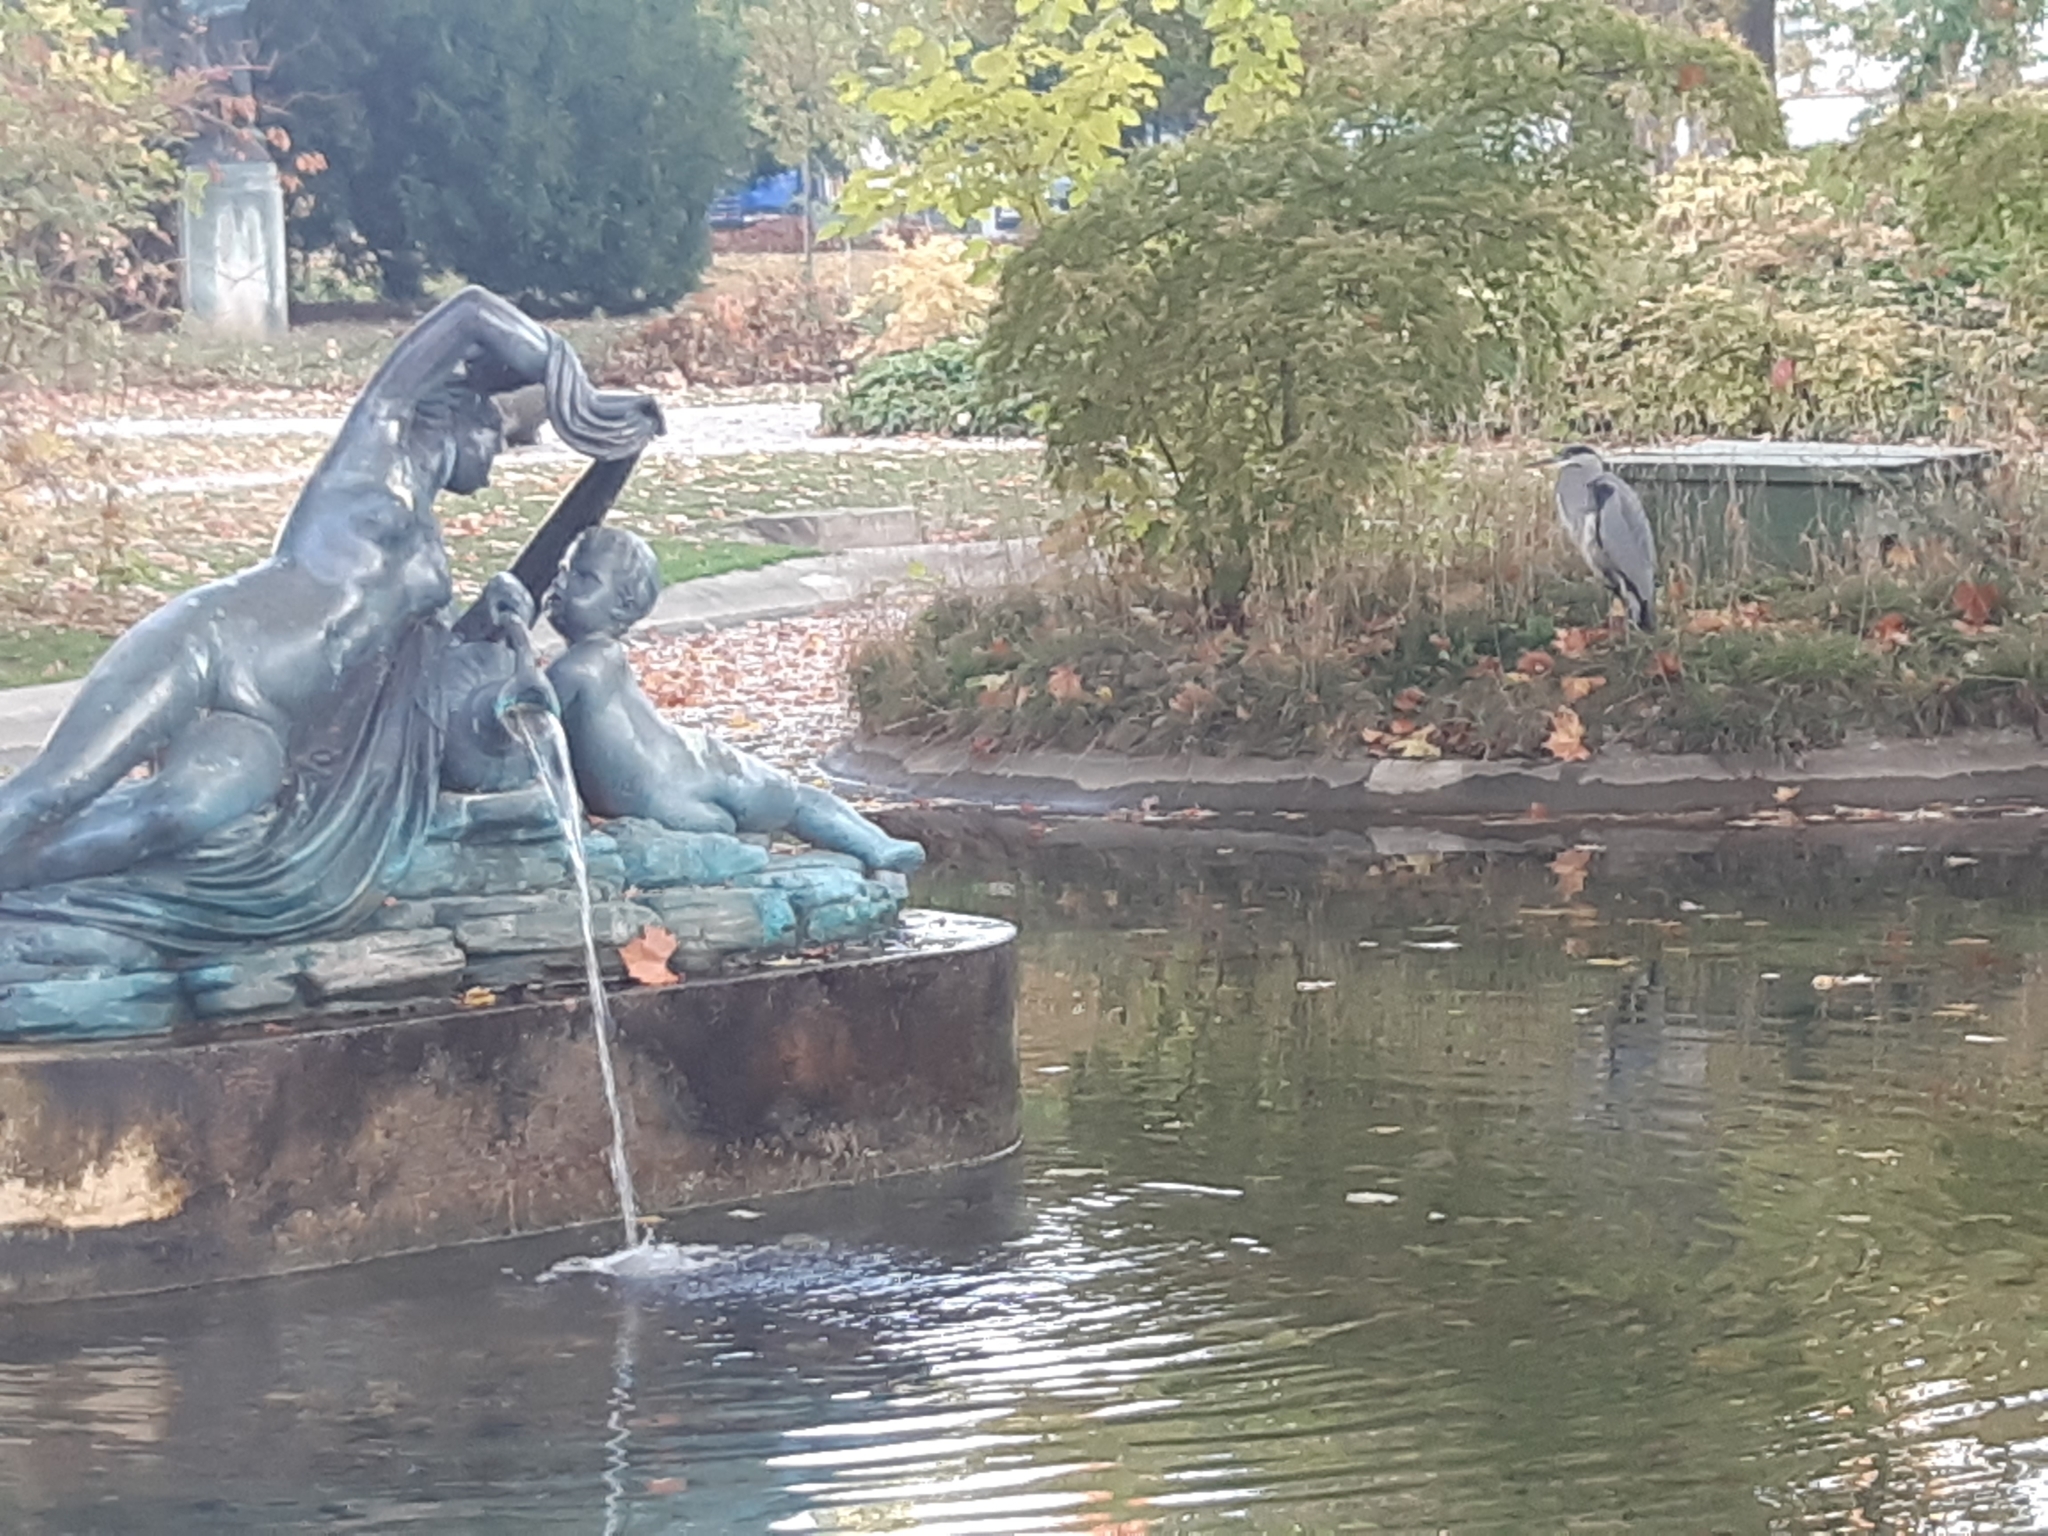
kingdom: Animalia
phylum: Chordata
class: Aves
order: Pelecaniformes
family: Ardeidae
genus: Ardea
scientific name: Ardea cinerea
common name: Grey heron
